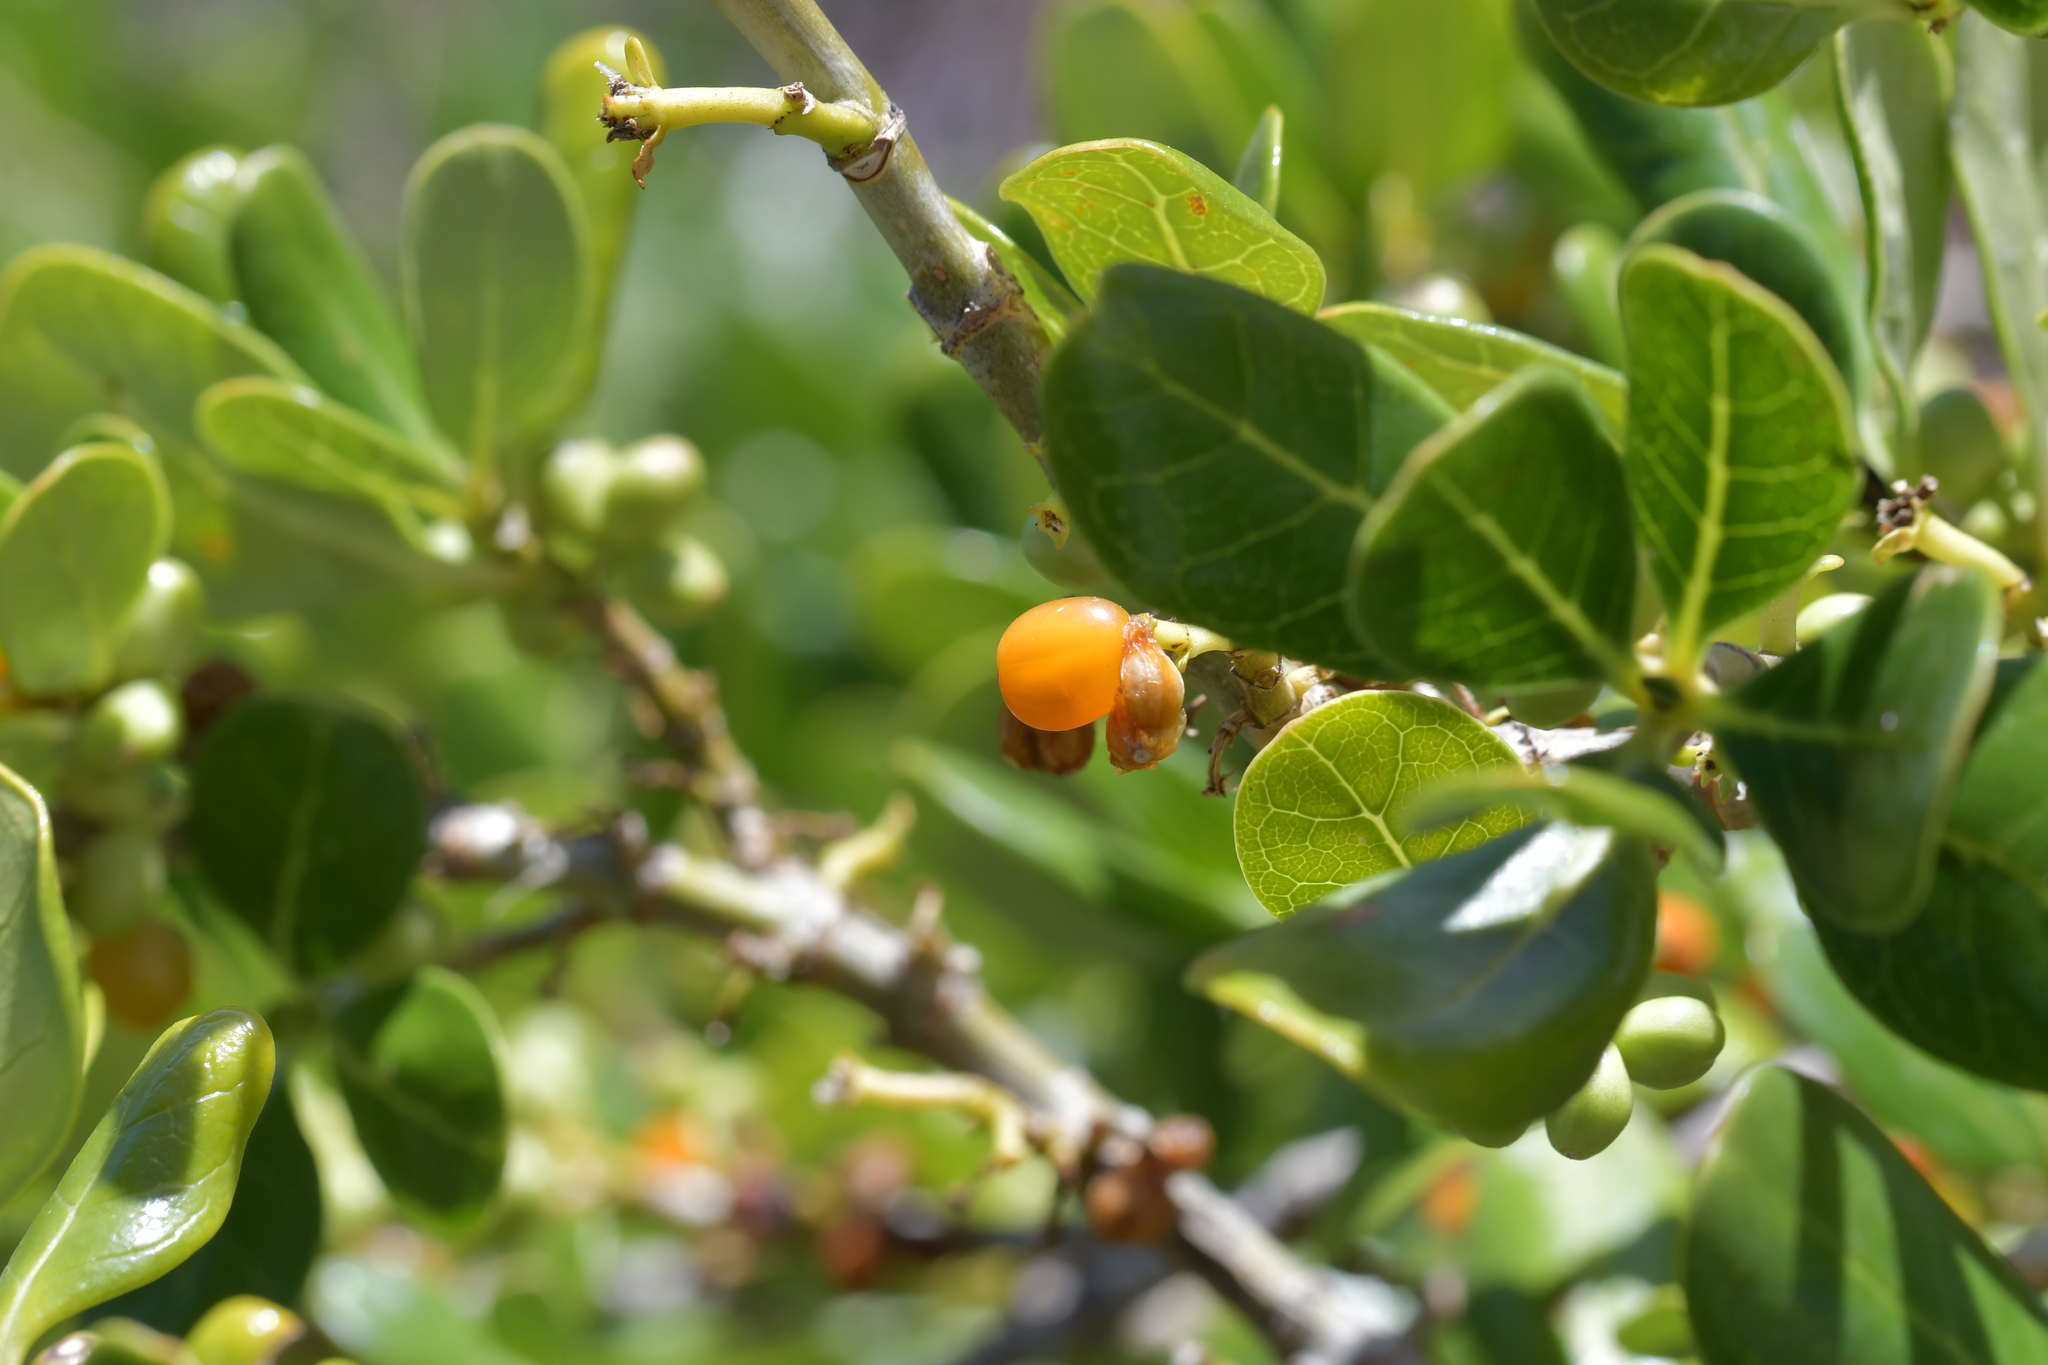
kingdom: Plantae
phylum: Tracheophyta
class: Magnoliopsida
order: Gentianales
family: Rubiaceae
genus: Coprosma
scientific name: Coprosma repens
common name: Tree bedstraw
